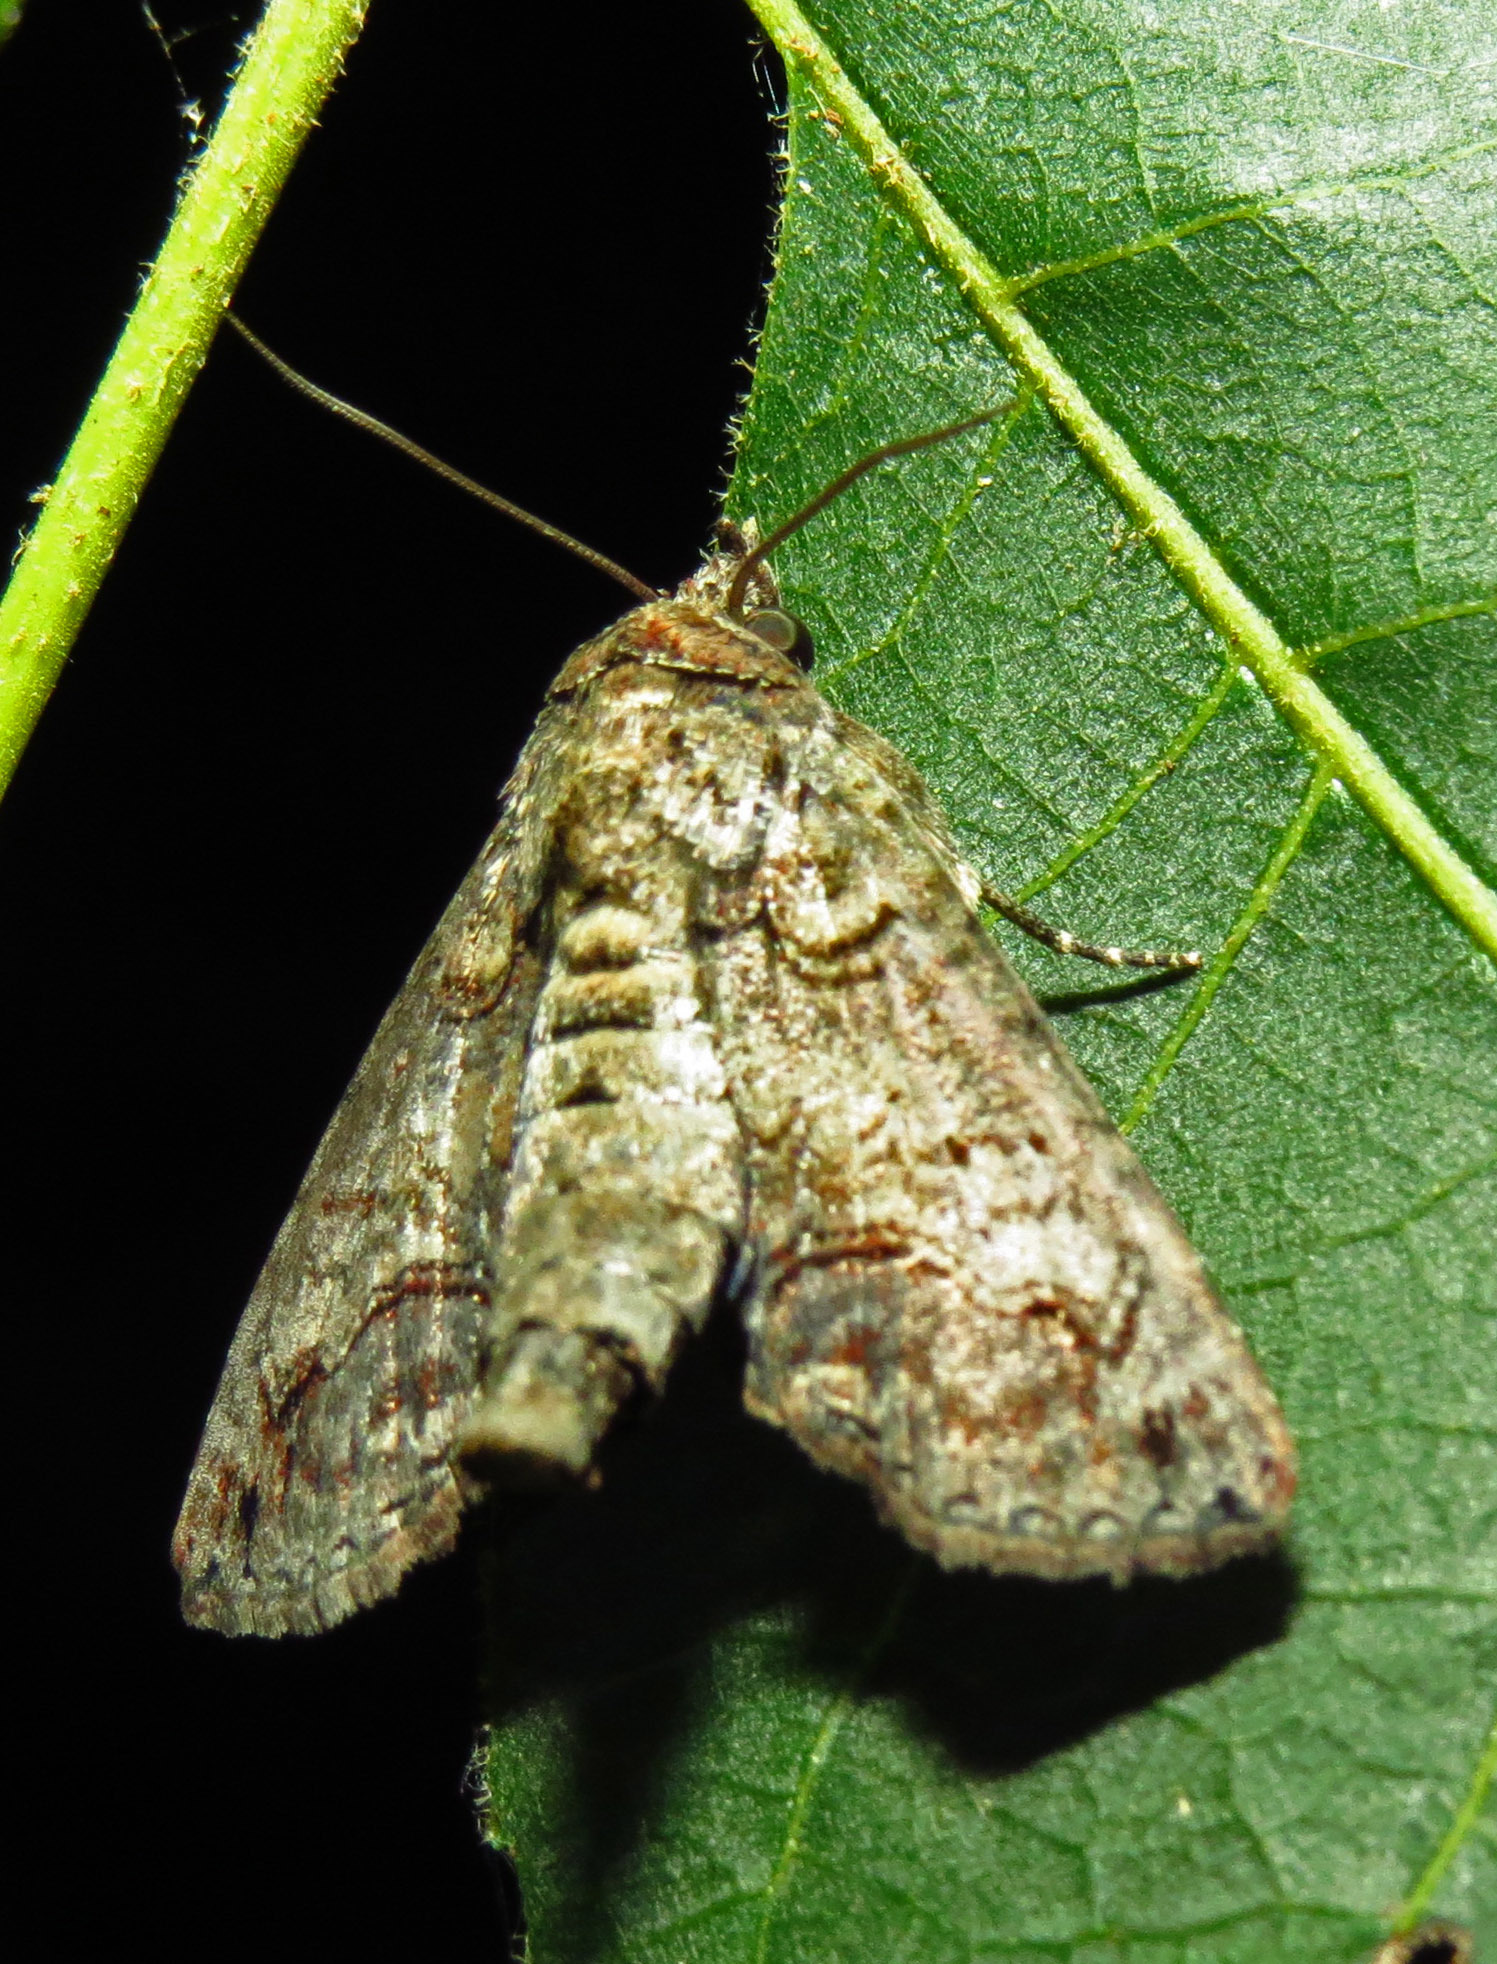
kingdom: Animalia
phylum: Arthropoda
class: Insecta
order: Lepidoptera
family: Euteliidae
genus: Paectes
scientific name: Paectes abrostoloides
